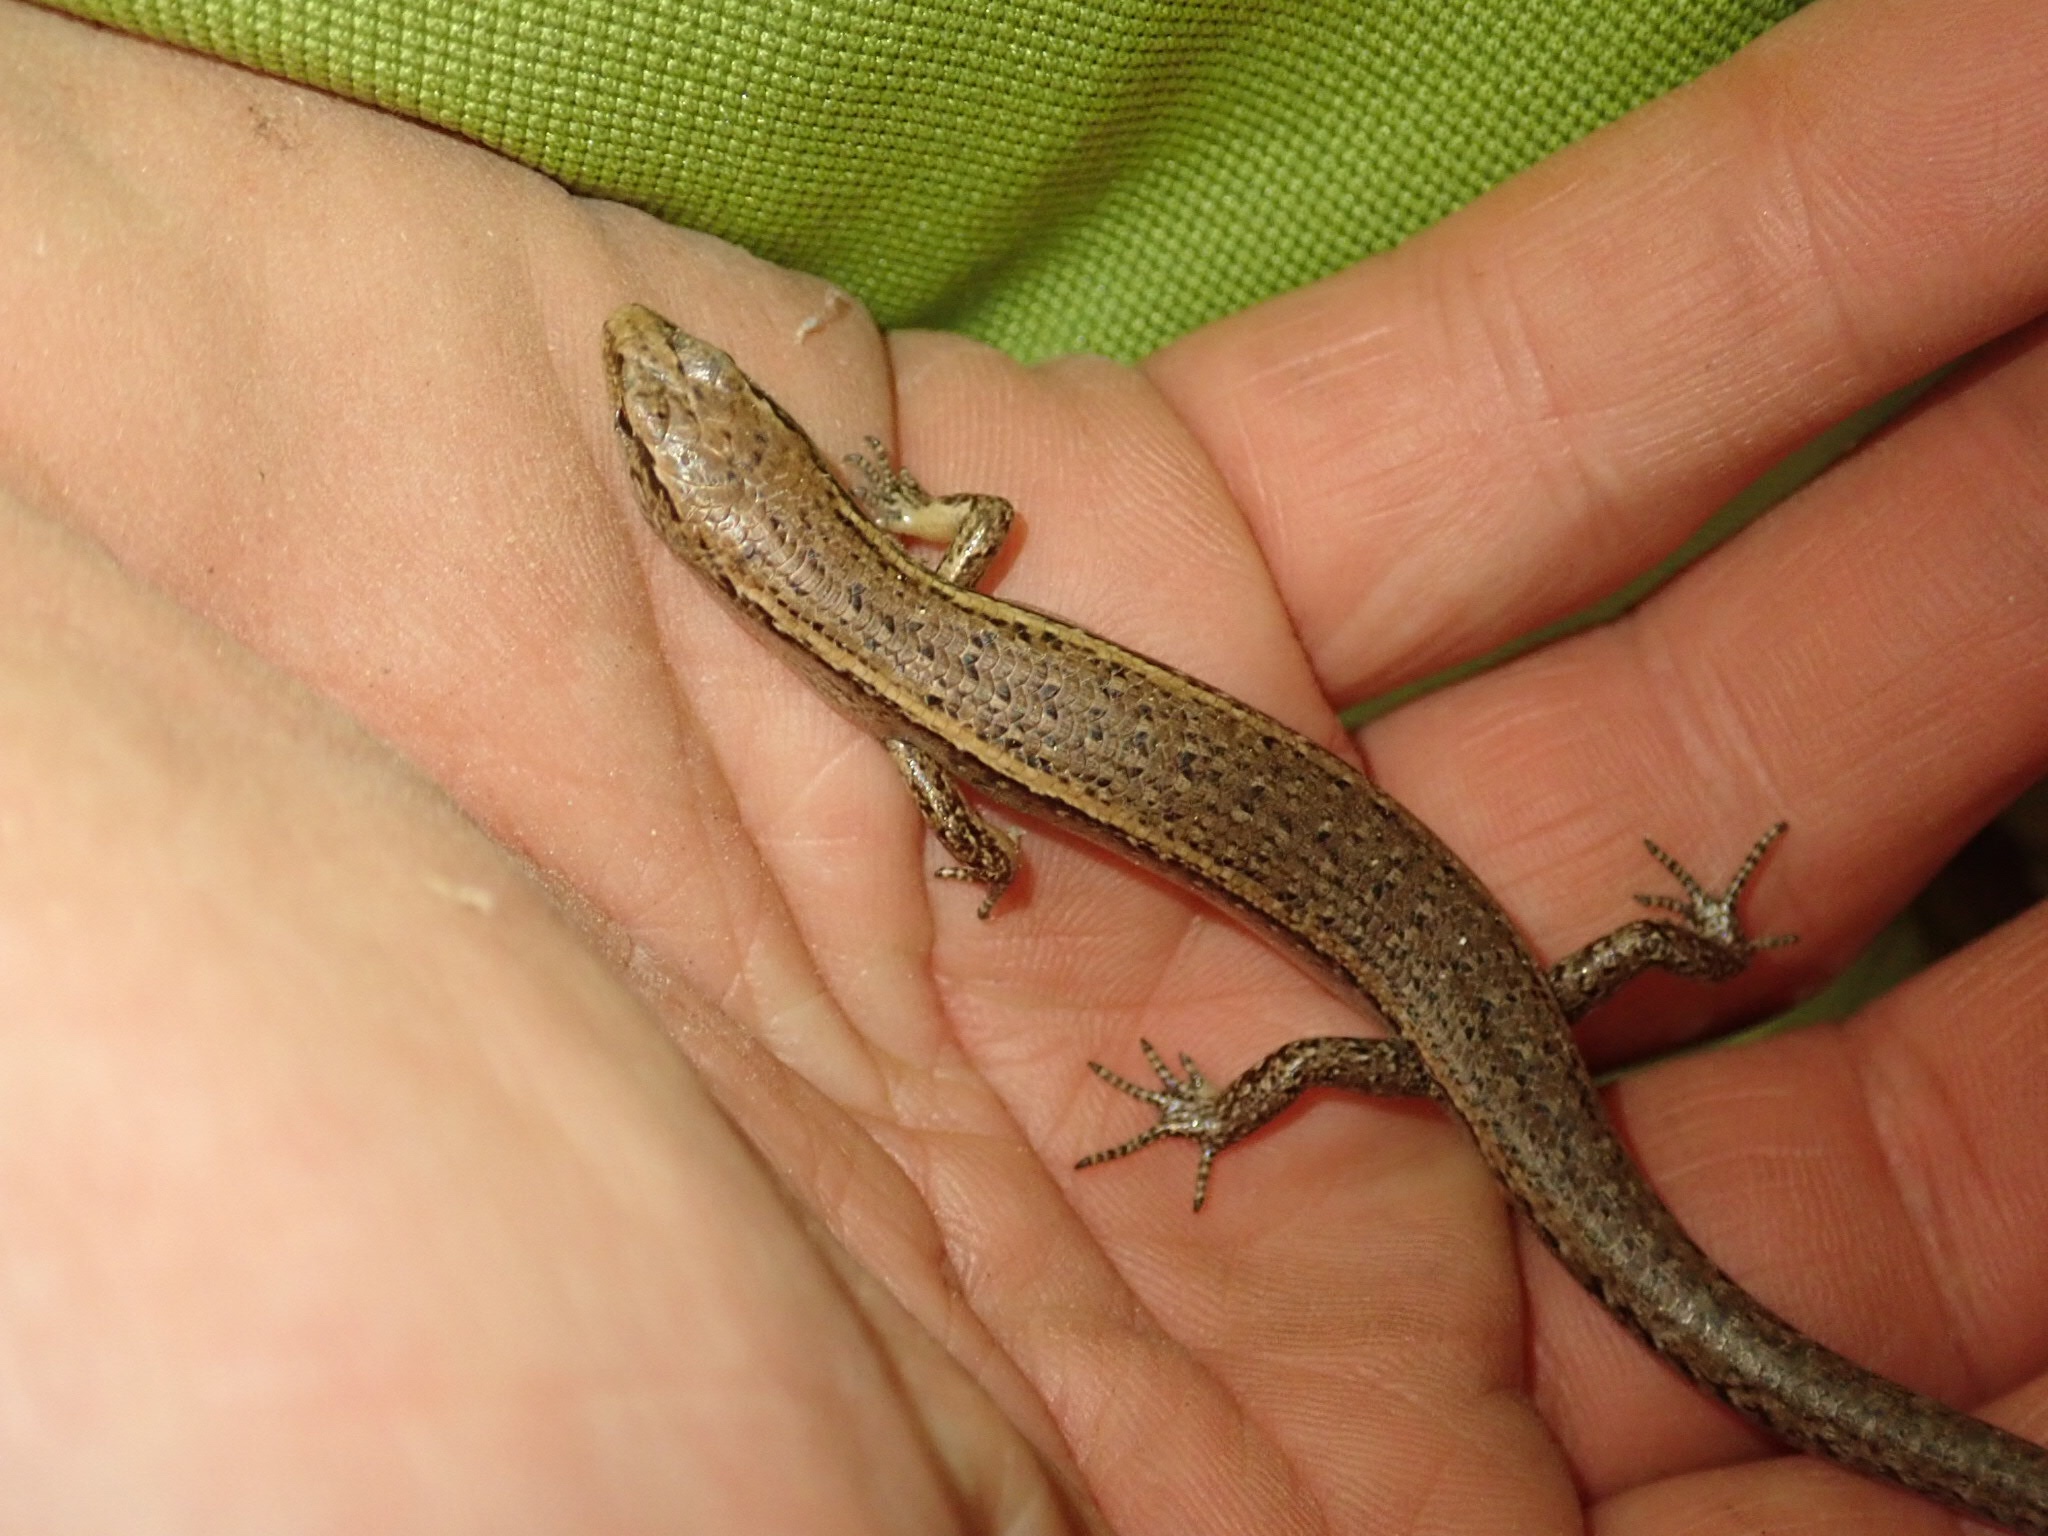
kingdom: Animalia
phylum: Chordata
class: Squamata
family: Scincidae
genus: Oligosoma
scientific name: Oligosoma aeneum
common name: Copper skink
